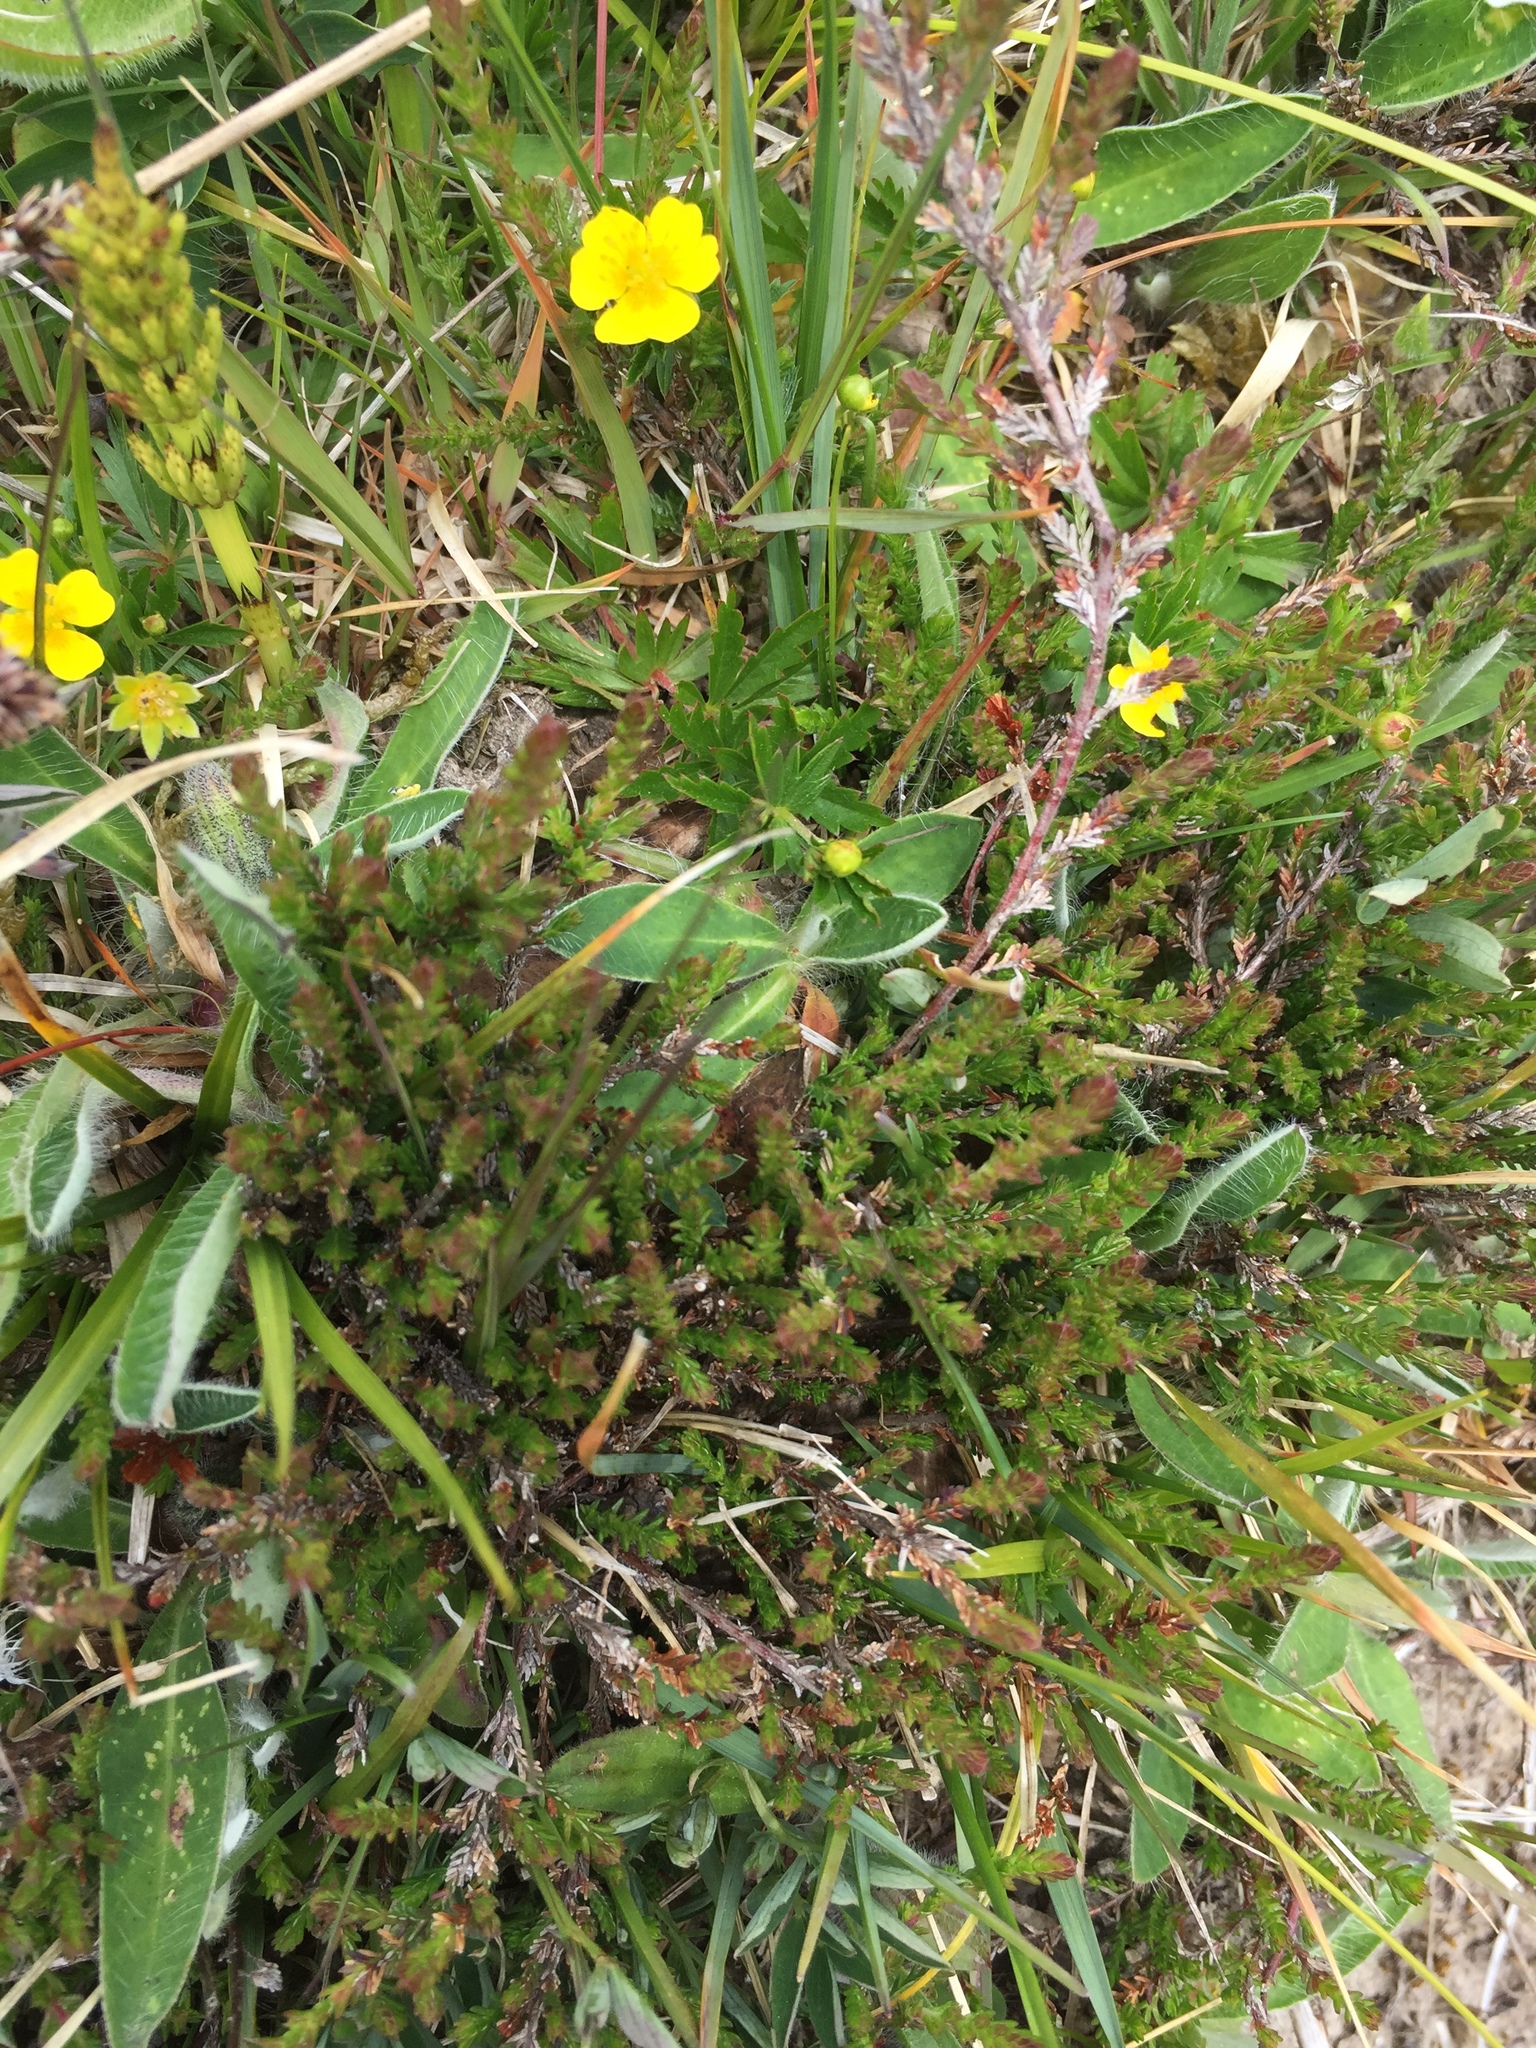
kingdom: Plantae
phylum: Tracheophyta
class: Magnoliopsida
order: Ericales
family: Ericaceae
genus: Calluna
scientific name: Calluna vulgaris
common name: Heather
